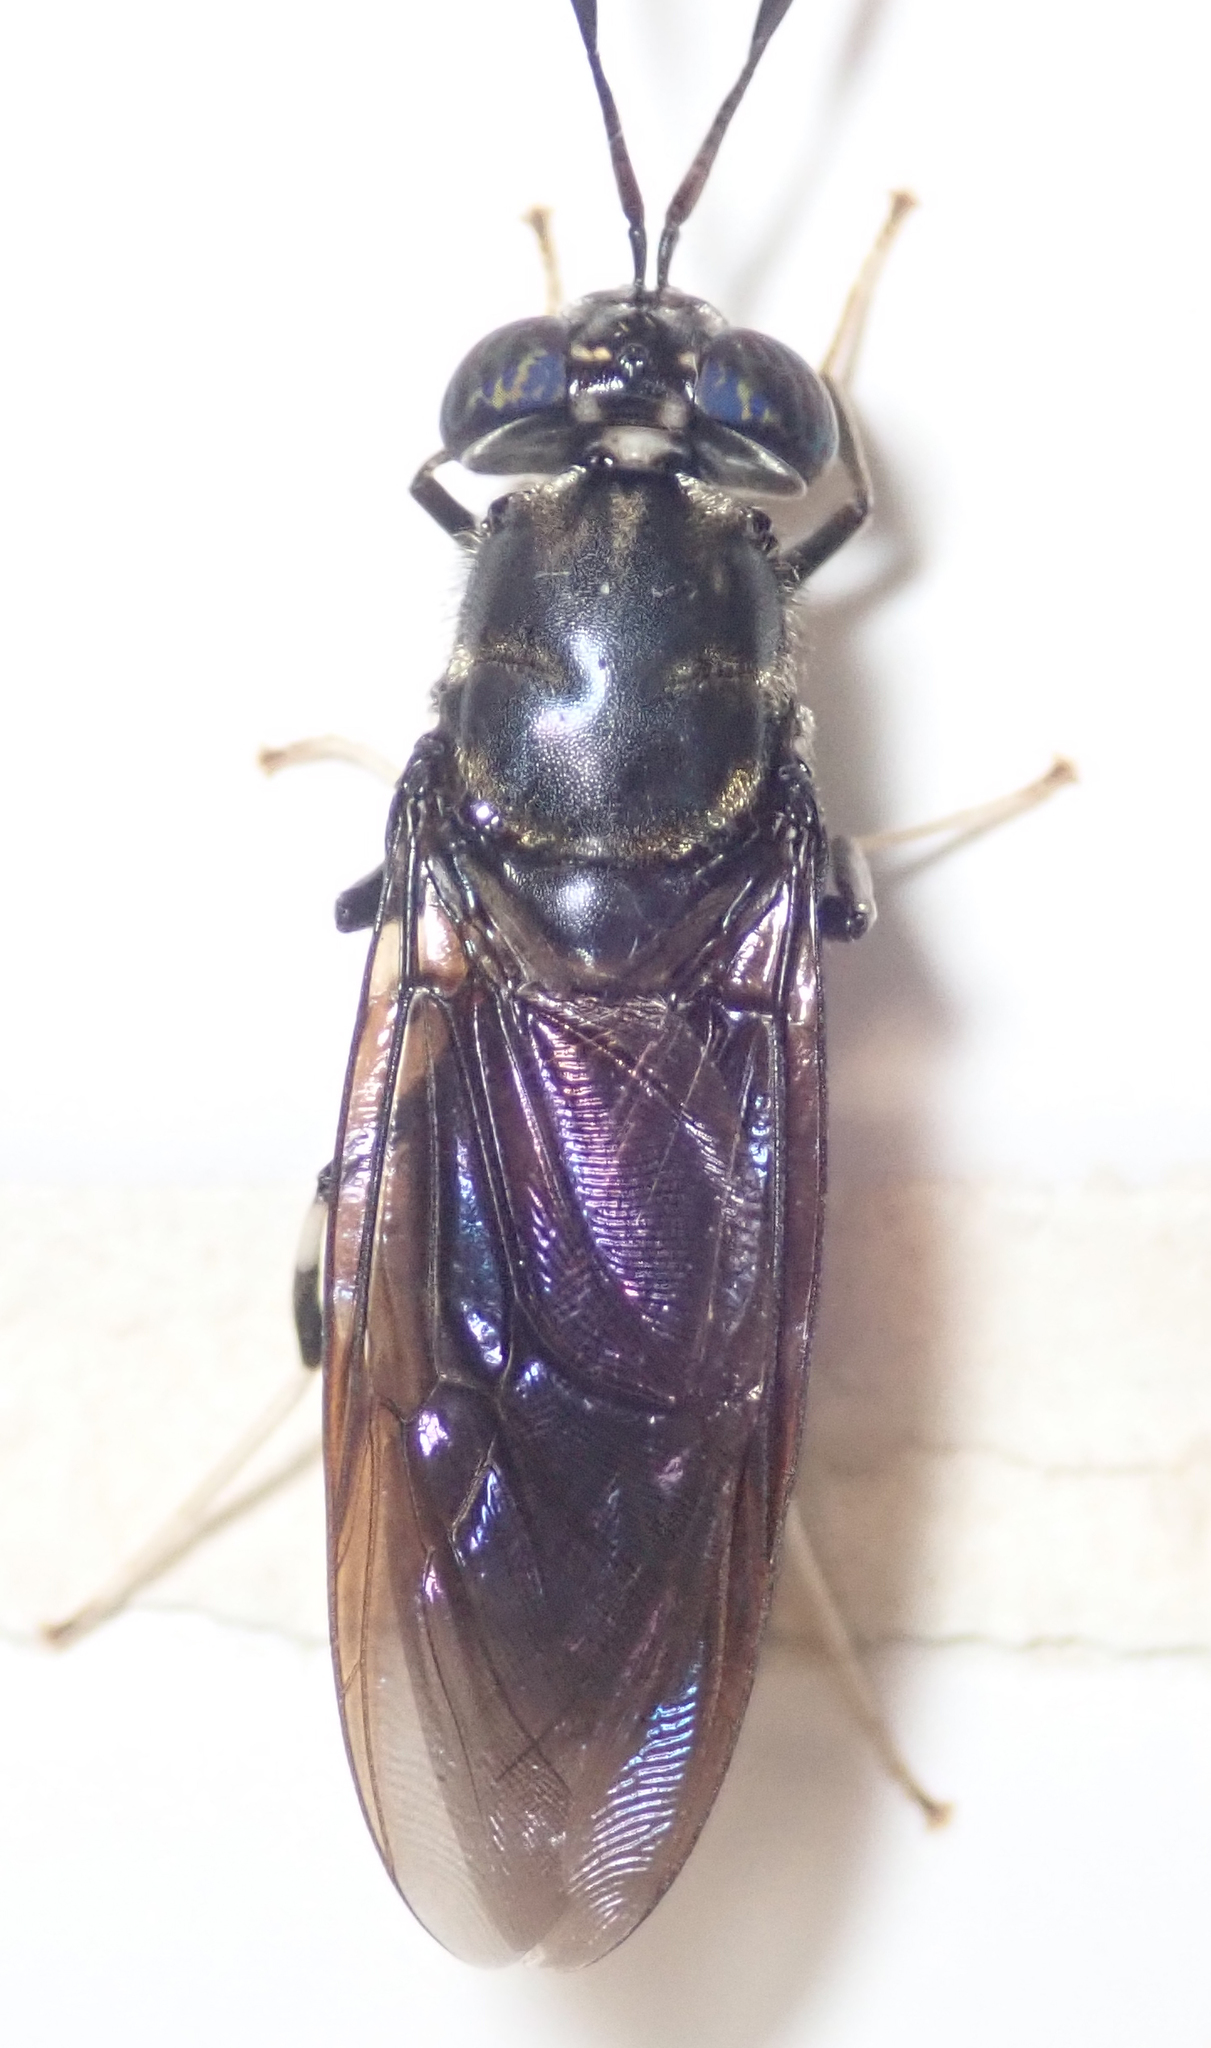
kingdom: Animalia
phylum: Arthropoda
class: Insecta
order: Diptera
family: Stratiomyidae
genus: Hermetia
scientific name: Hermetia illucens
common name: Black soldier fly
